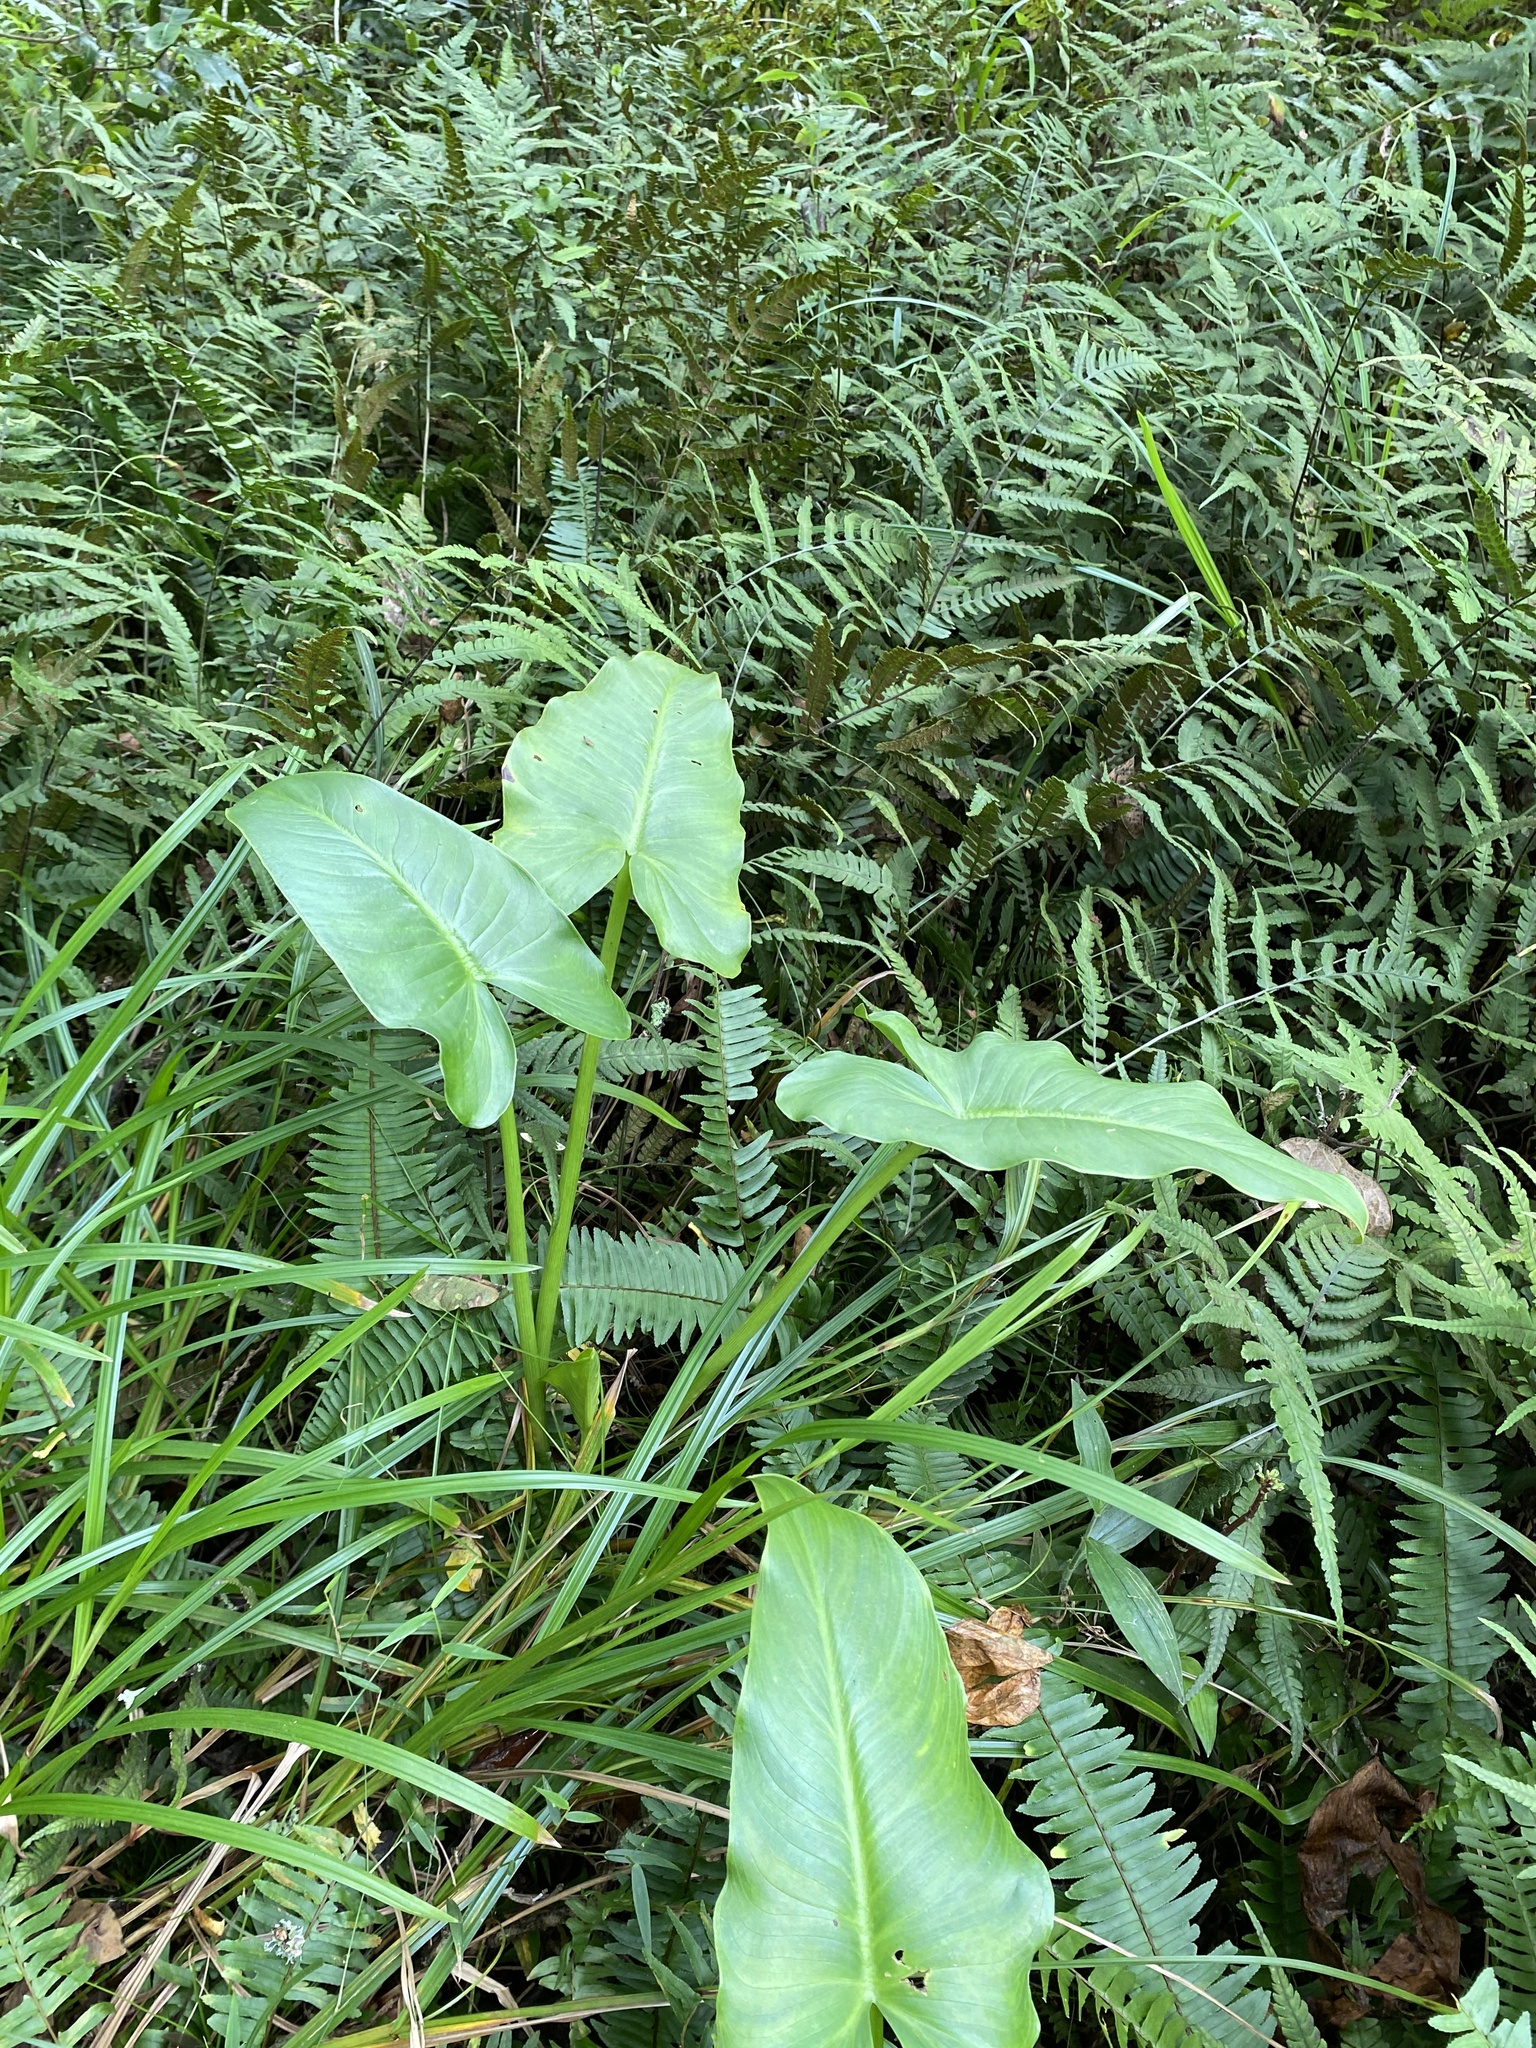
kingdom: Plantae
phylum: Tracheophyta
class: Liliopsida
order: Alismatales
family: Araceae
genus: Zantedeschia
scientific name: Zantedeschia aethiopica
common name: Altar-lily
